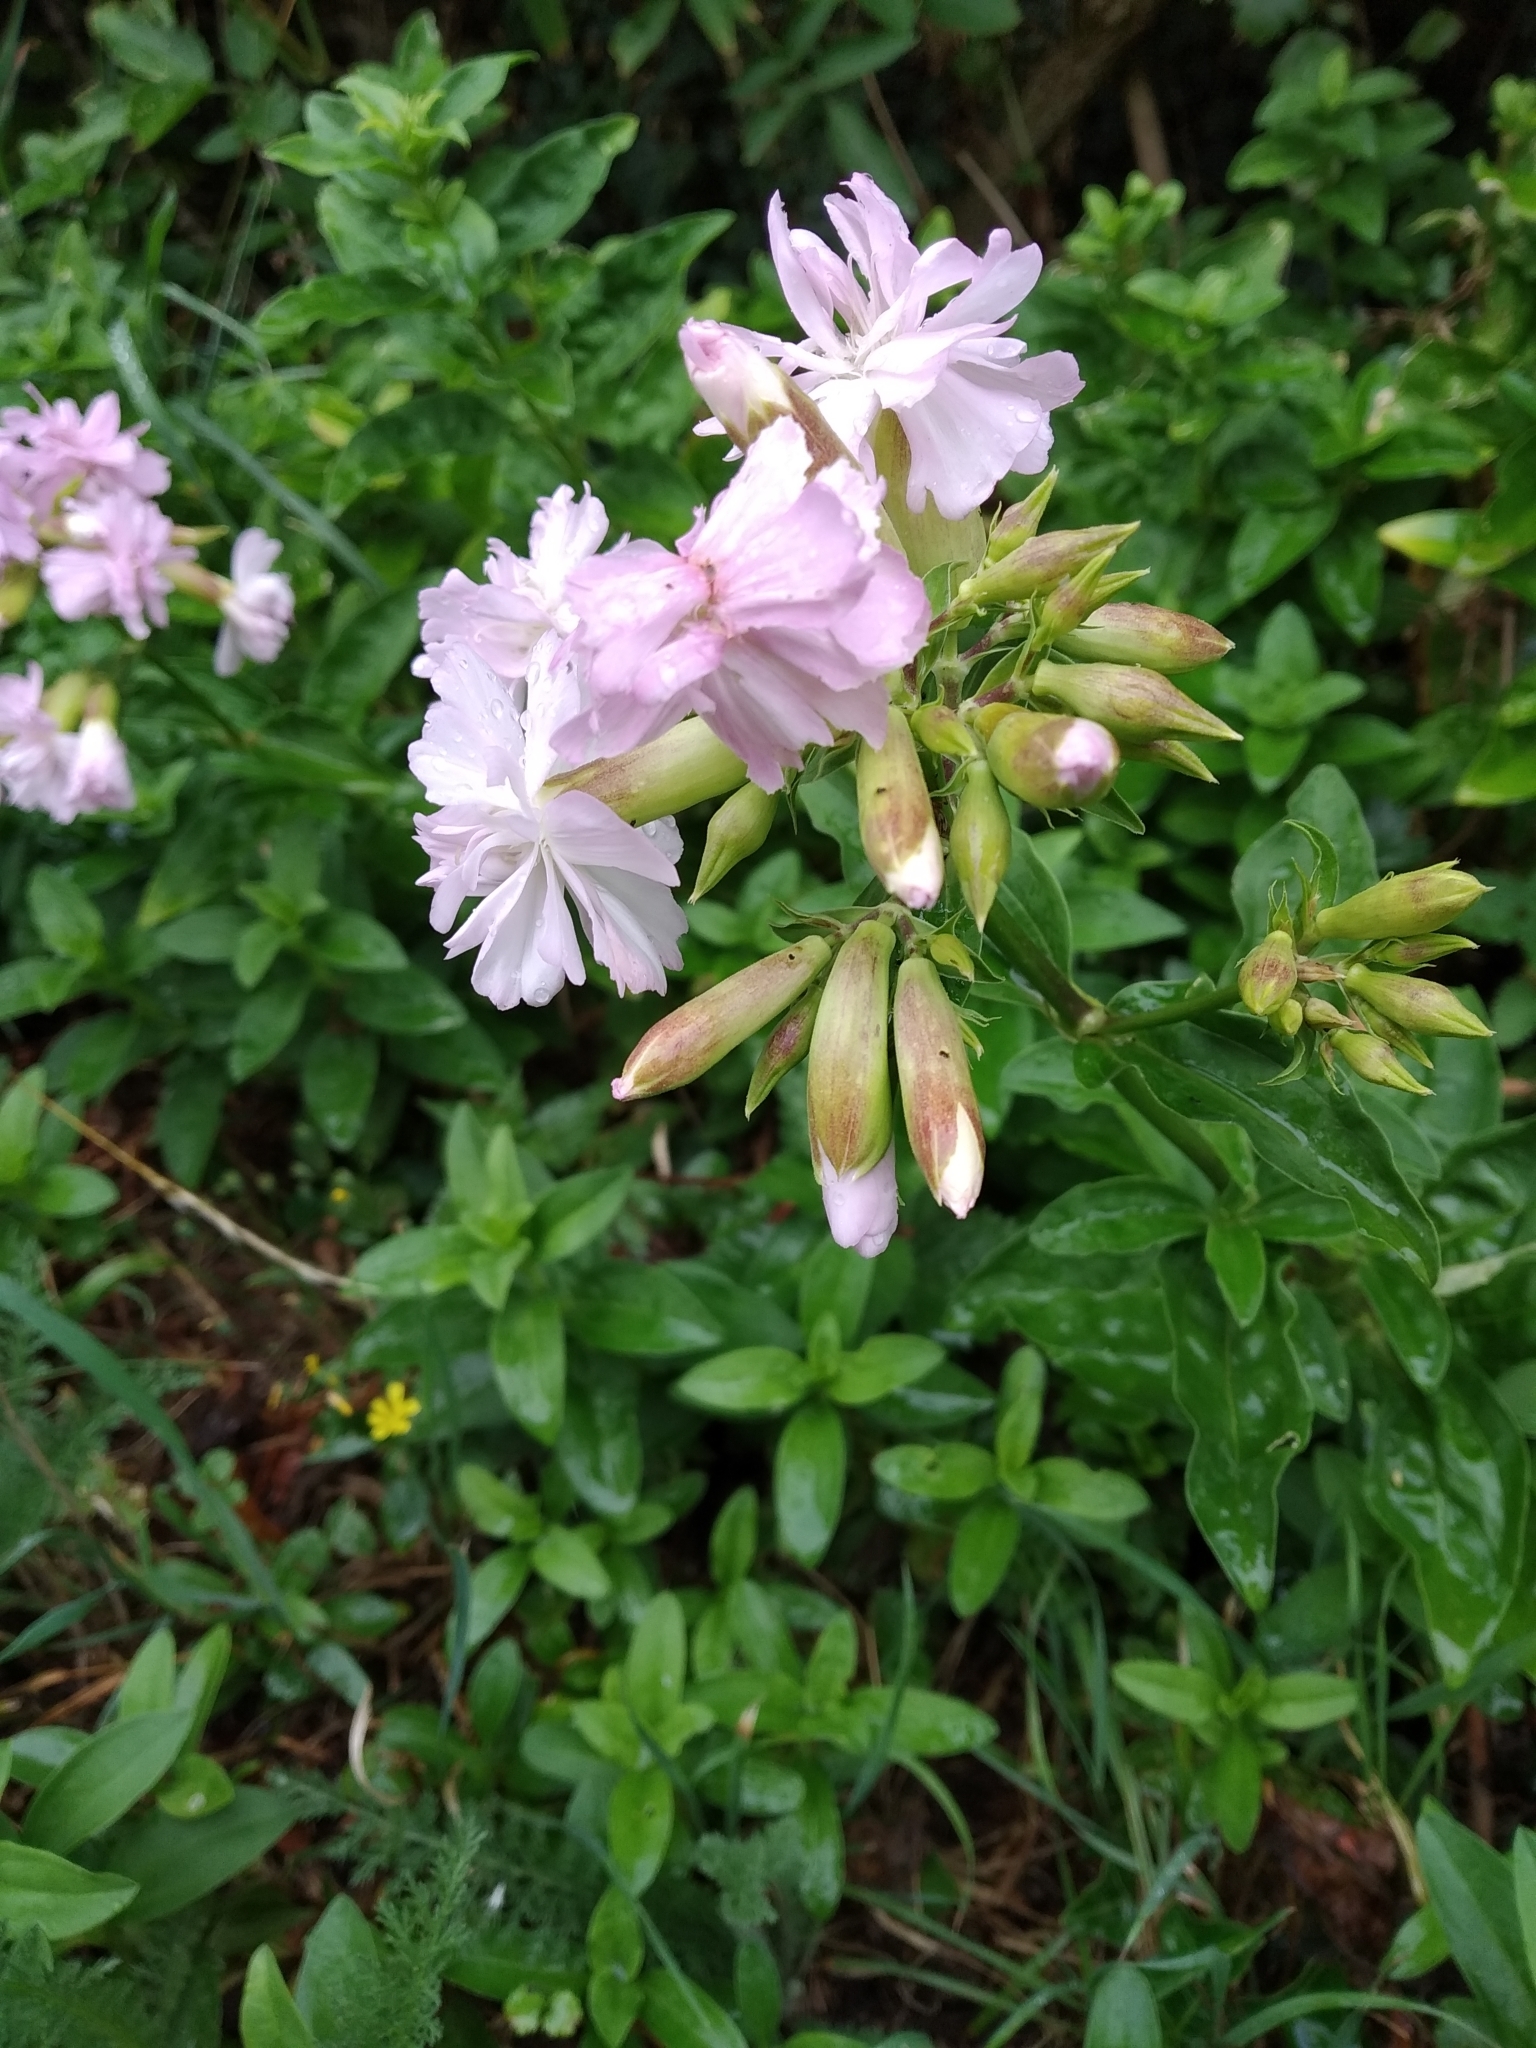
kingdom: Plantae
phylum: Tracheophyta
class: Magnoliopsida
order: Caryophyllales
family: Caryophyllaceae
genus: Saponaria
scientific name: Saponaria officinalis
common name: Soapwort
